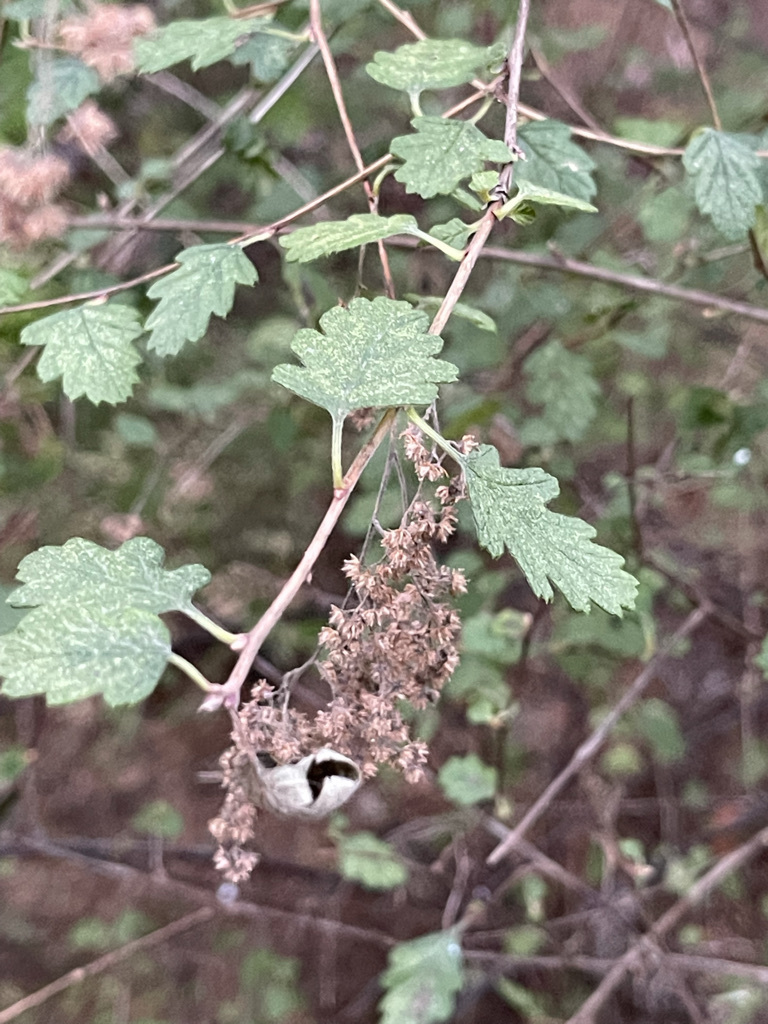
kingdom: Plantae
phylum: Tracheophyta
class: Magnoliopsida
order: Rosales
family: Rosaceae
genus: Holodiscus
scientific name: Holodiscus discolor
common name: Oceanspray
